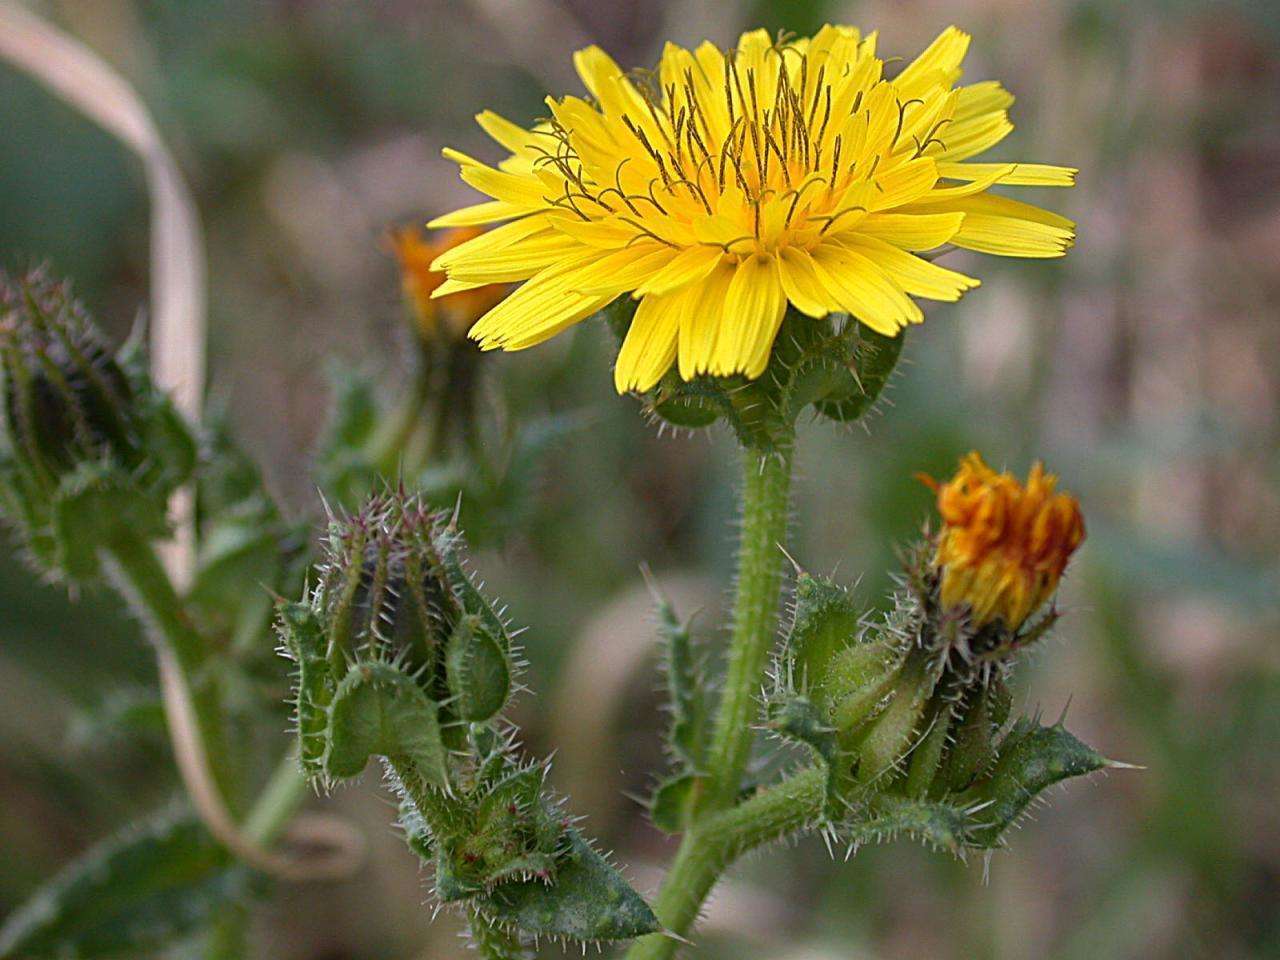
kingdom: Plantae
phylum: Tracheophyta
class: Magnoliopsida
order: Asterales
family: Asteraceae
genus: Helminthotheca
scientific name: Helminthotheca echioides
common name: Ox-tongue
